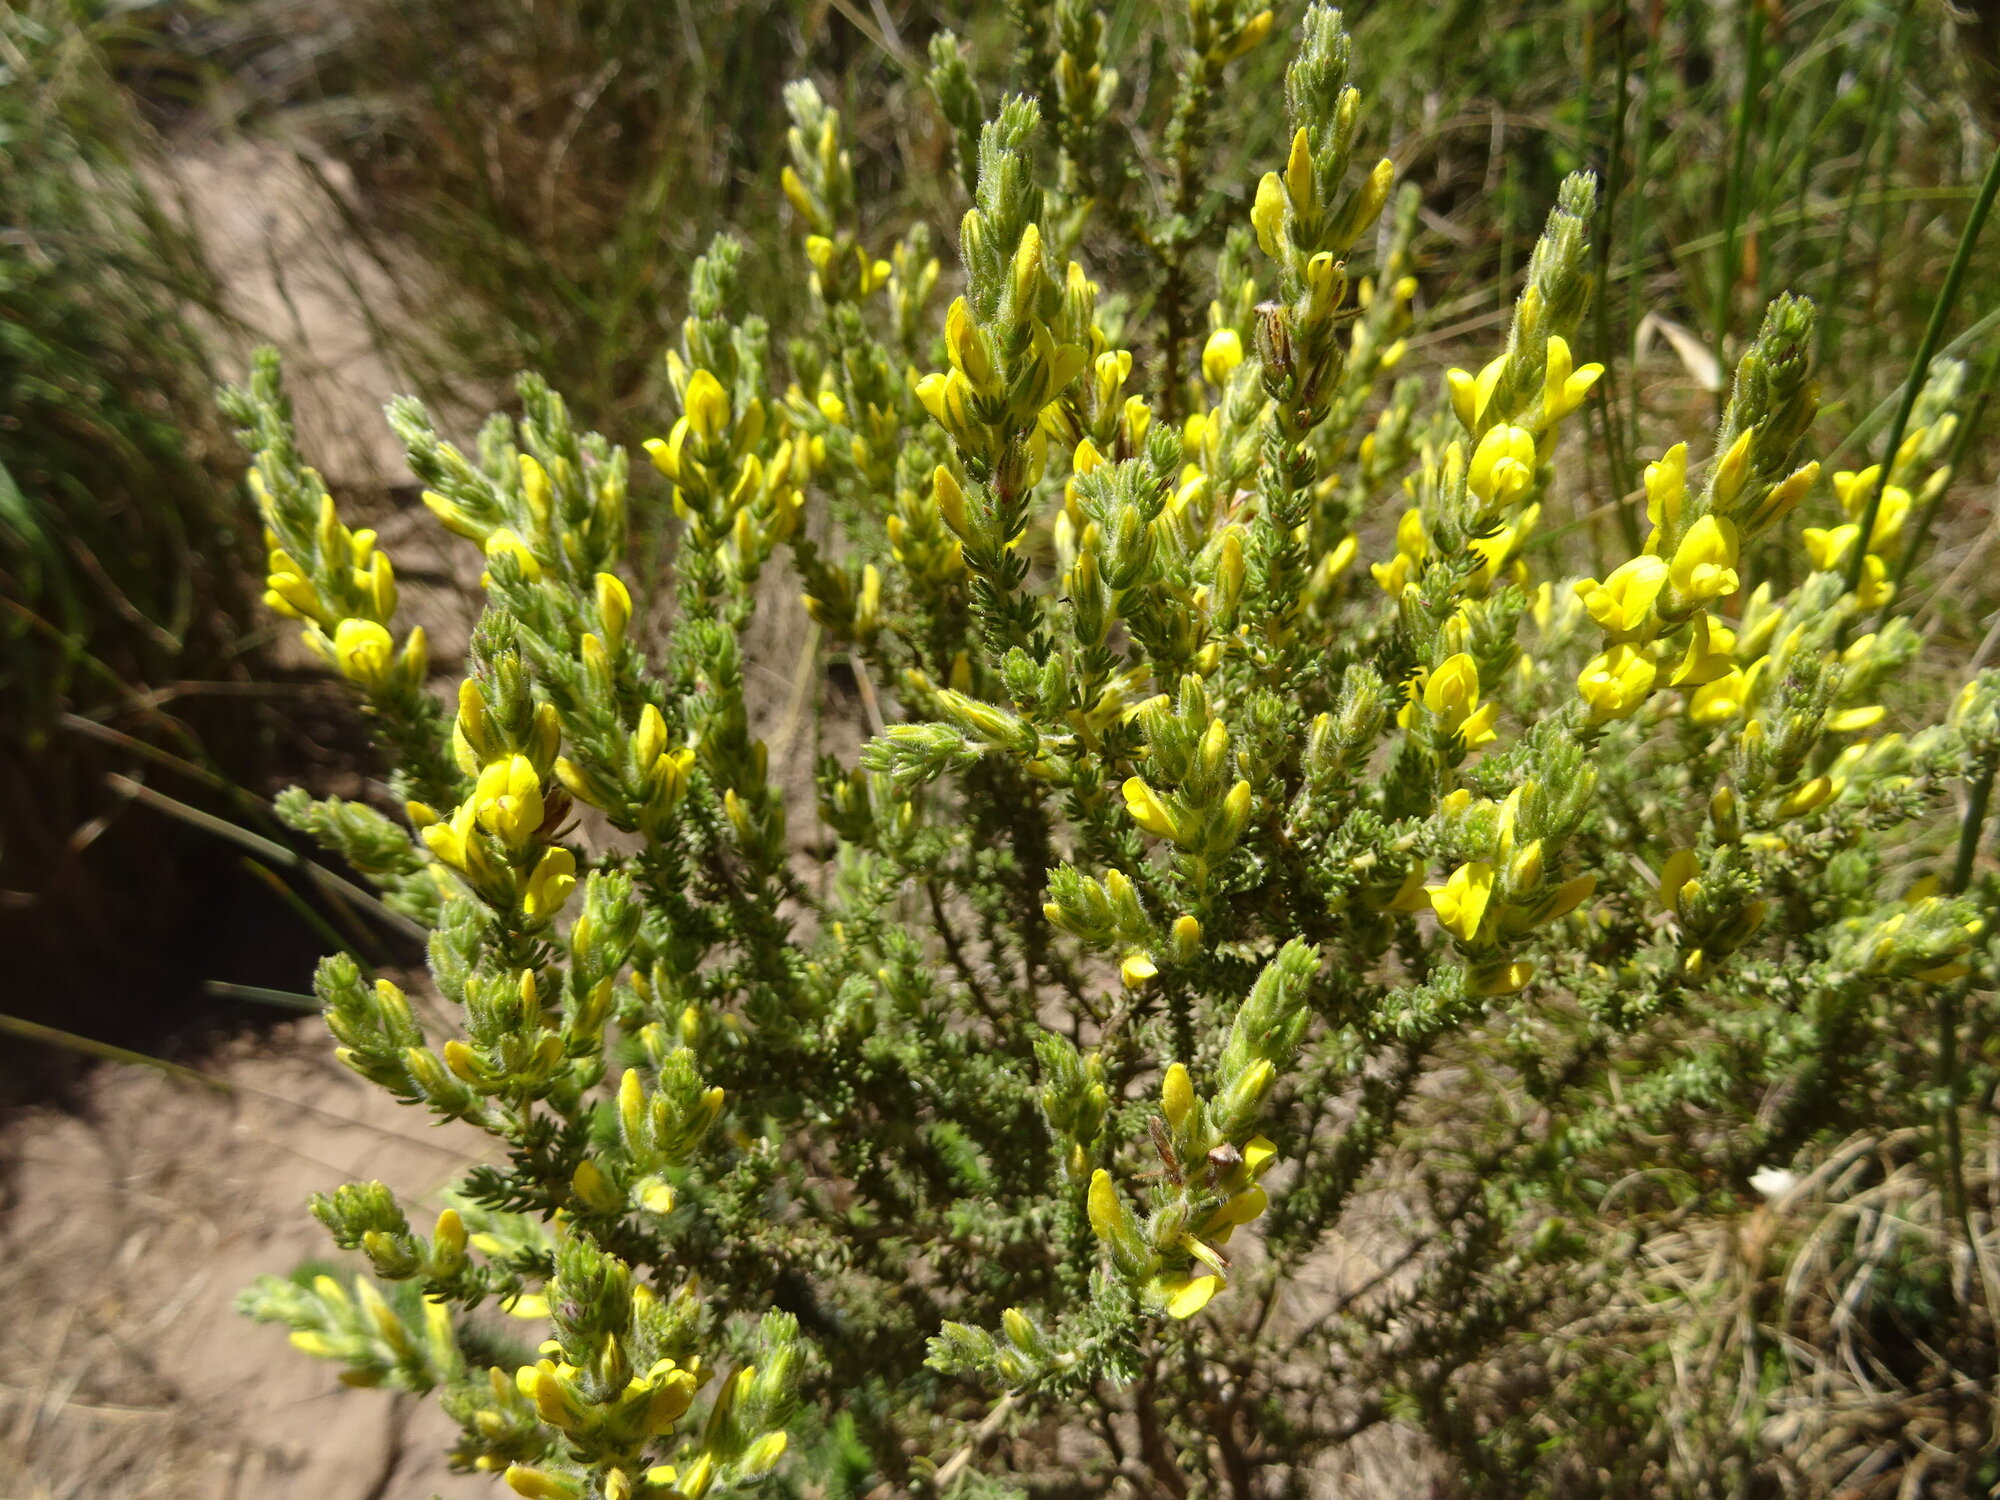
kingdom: Plantae
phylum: Tracheophyta
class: Magnoliopsida
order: Fabales
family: Fabaceae
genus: Aspalathus
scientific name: Aspalathus ericifolia
